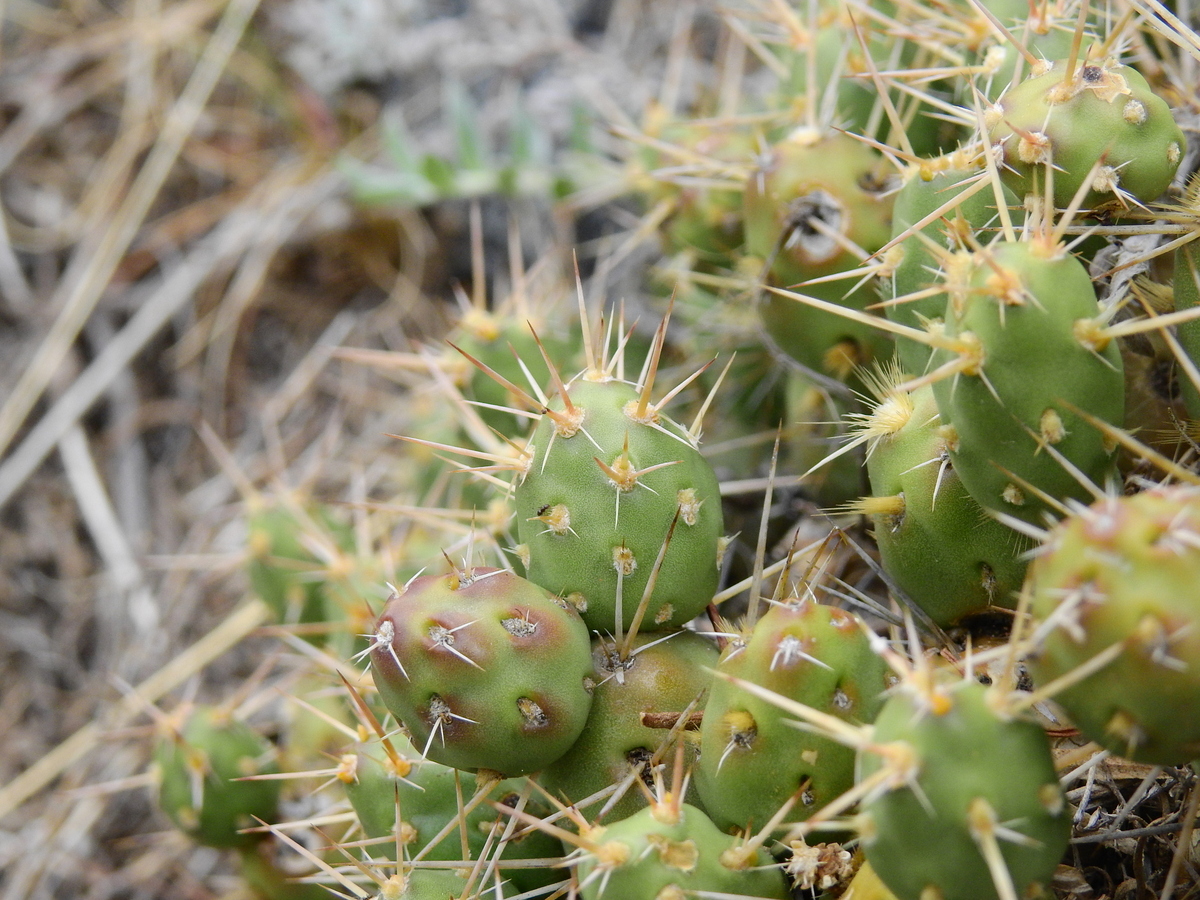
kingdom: Plantae
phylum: Tracheophyta
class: Magnoliopsida
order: Caryophyllales
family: Cactaceae
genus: Maihueniopsis
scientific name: Maihueniopsis ovata
